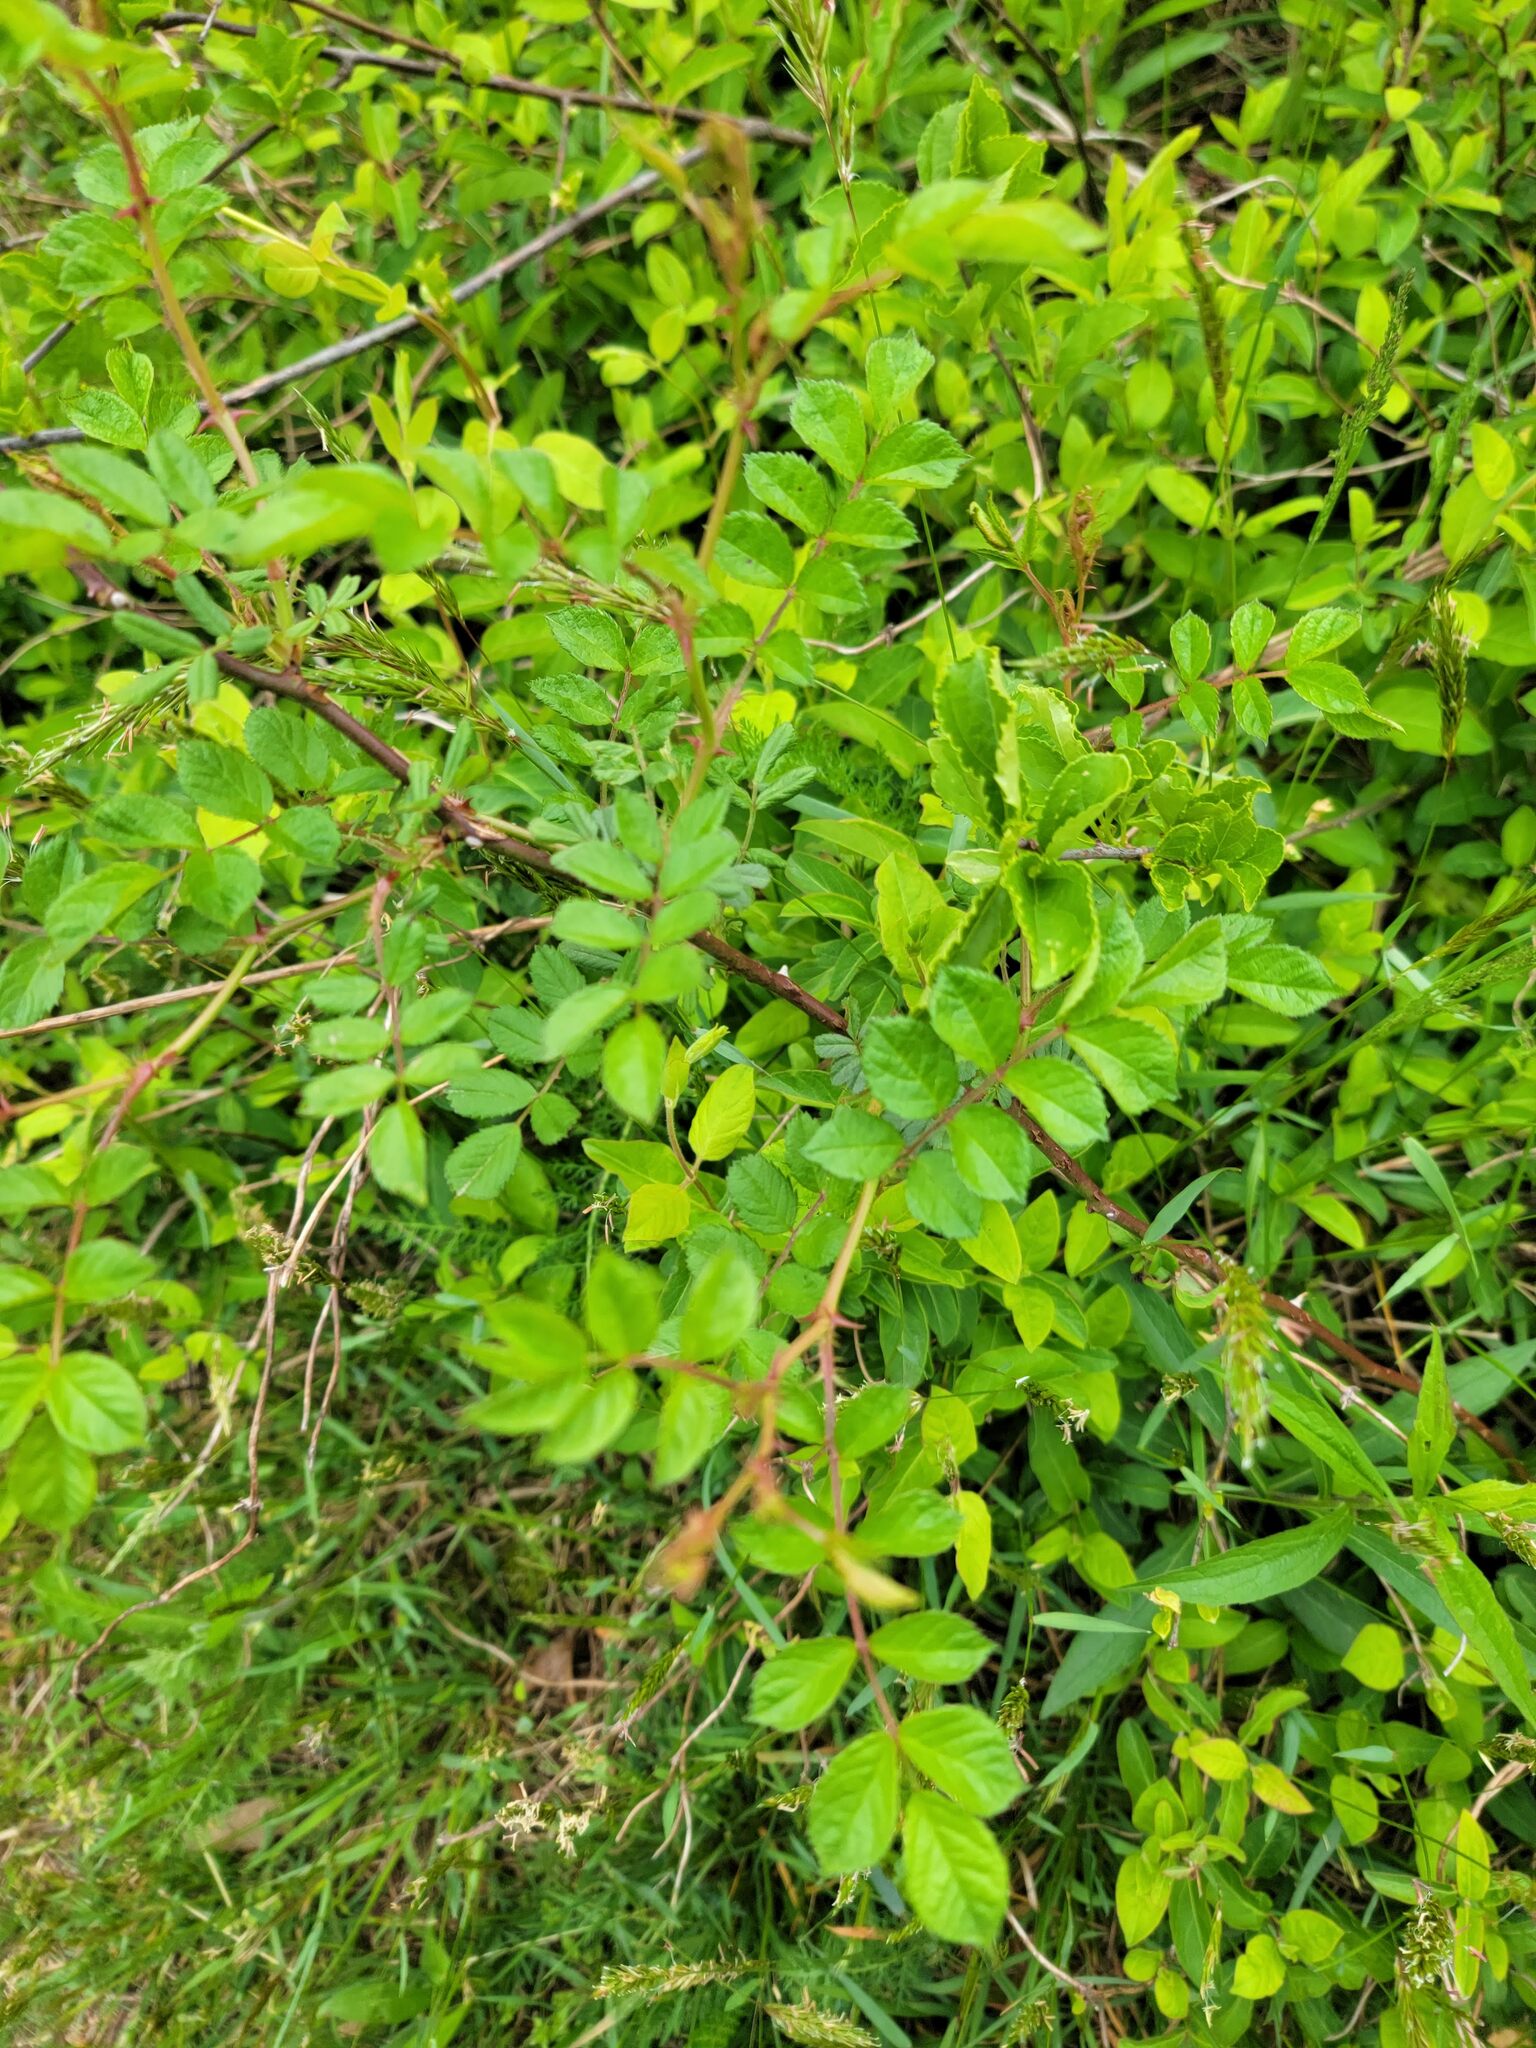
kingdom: Plantae
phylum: Tracheophyta
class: Magnoliopsida
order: Rosales
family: Rosaceae
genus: Rosa
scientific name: Rosa multiflora
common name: Multiflora rose
